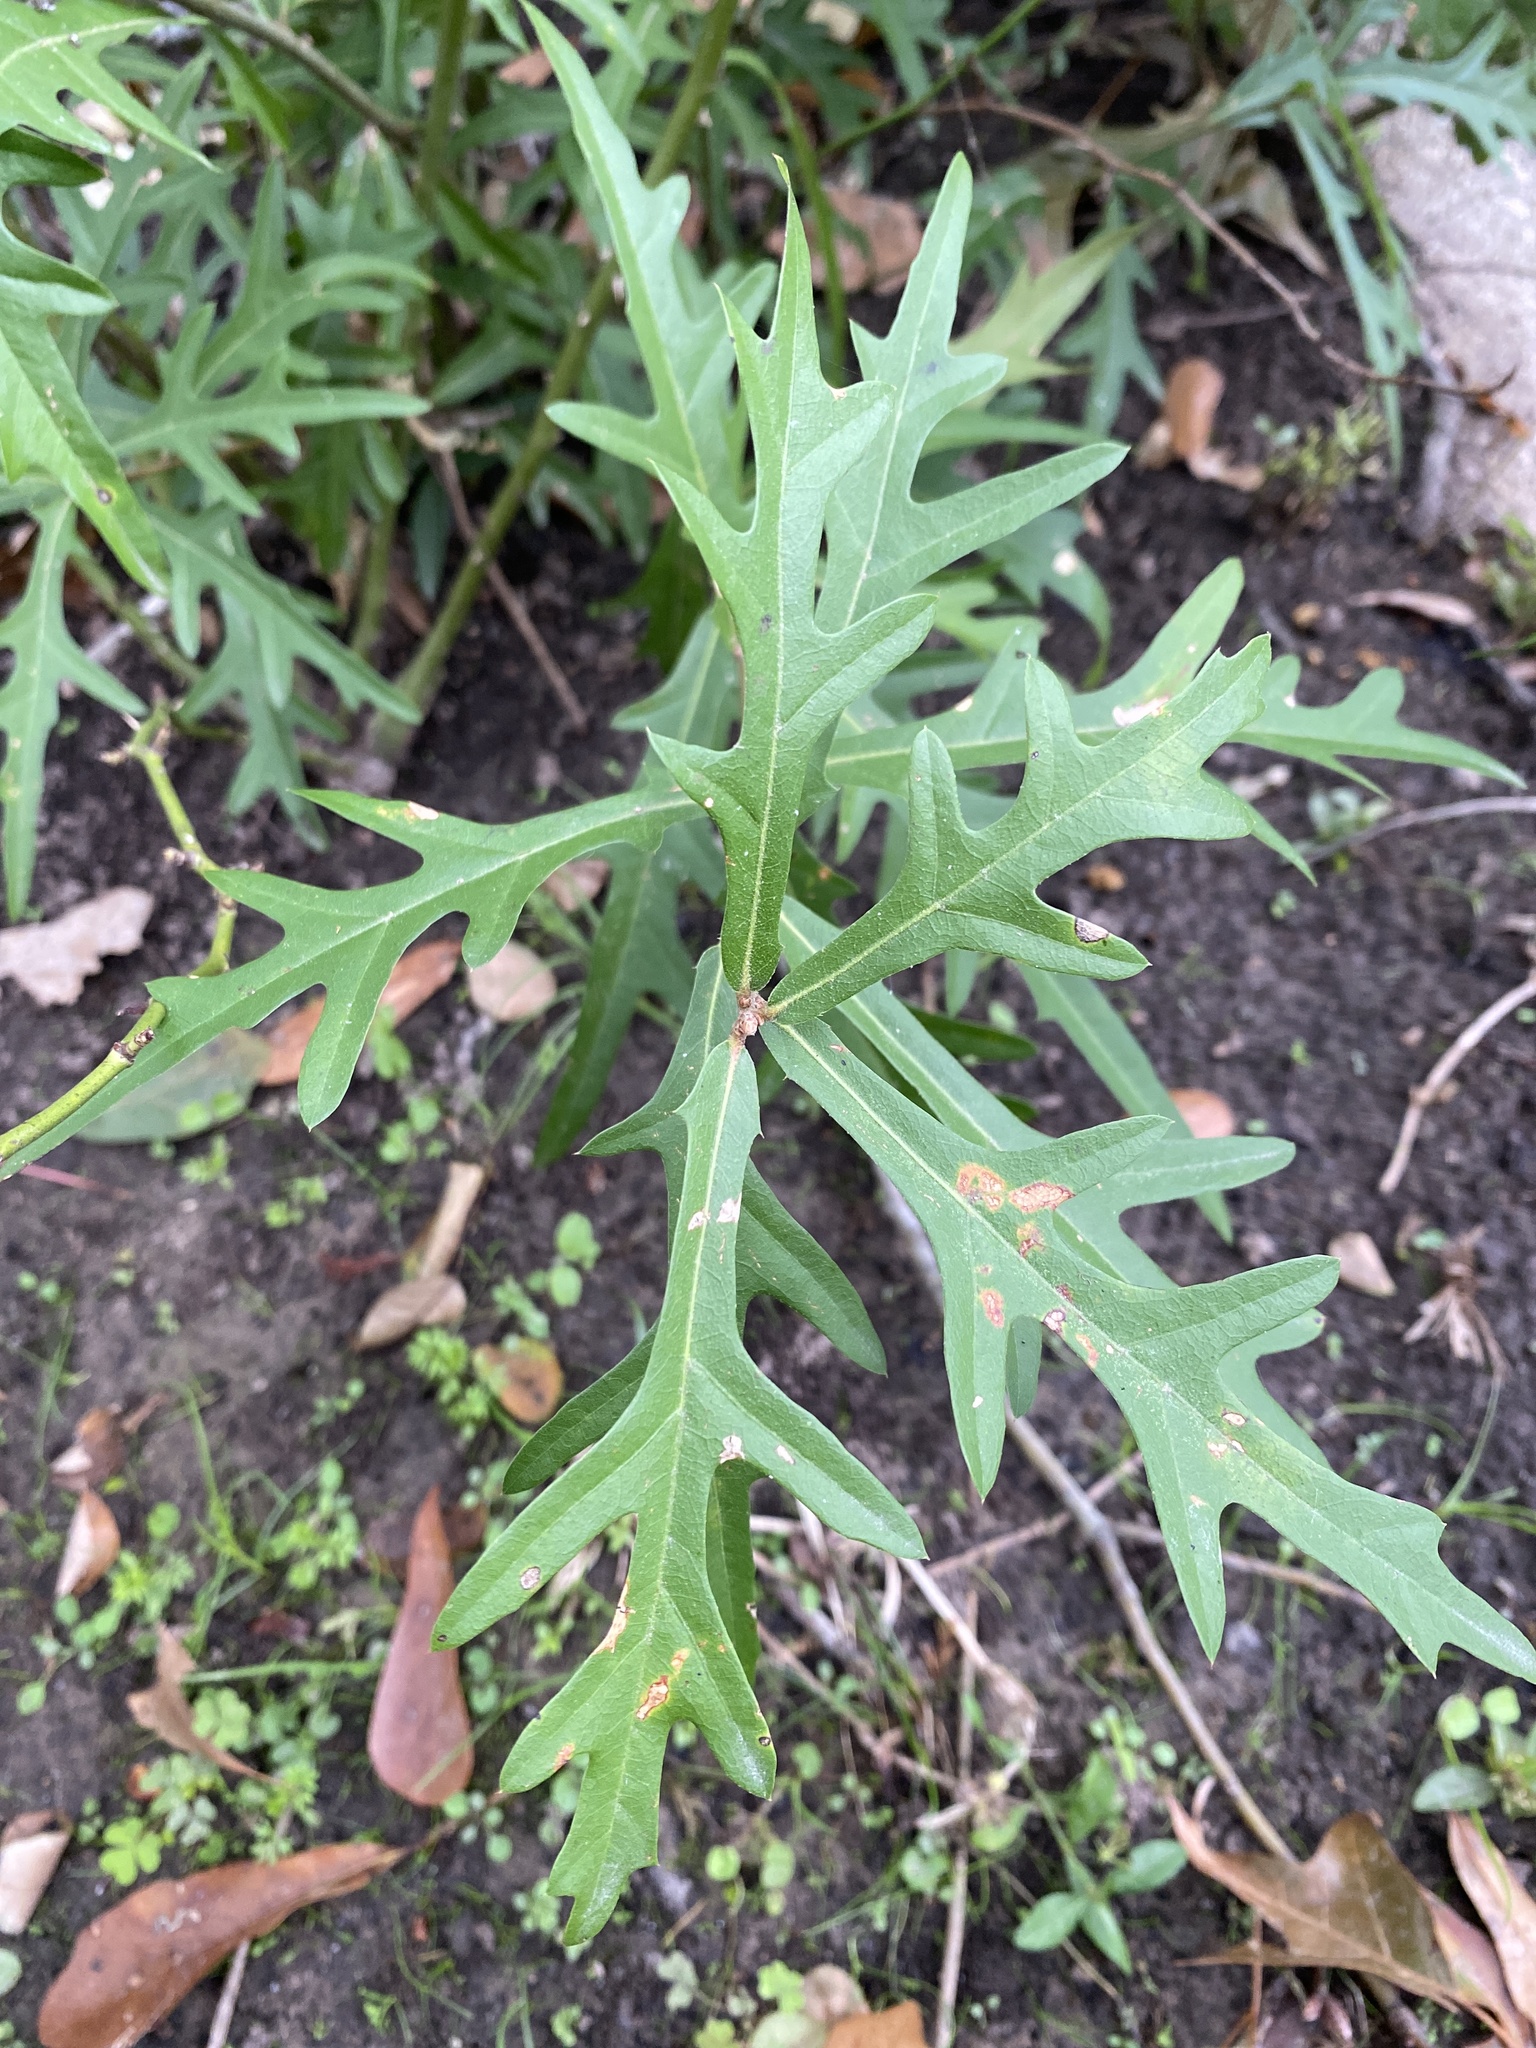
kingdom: Plantae
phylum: Tracheophyta
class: Magnoliopsida
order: Fagales
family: Fagaceae
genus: Quercus
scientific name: Quercus nigra
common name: Water oak
